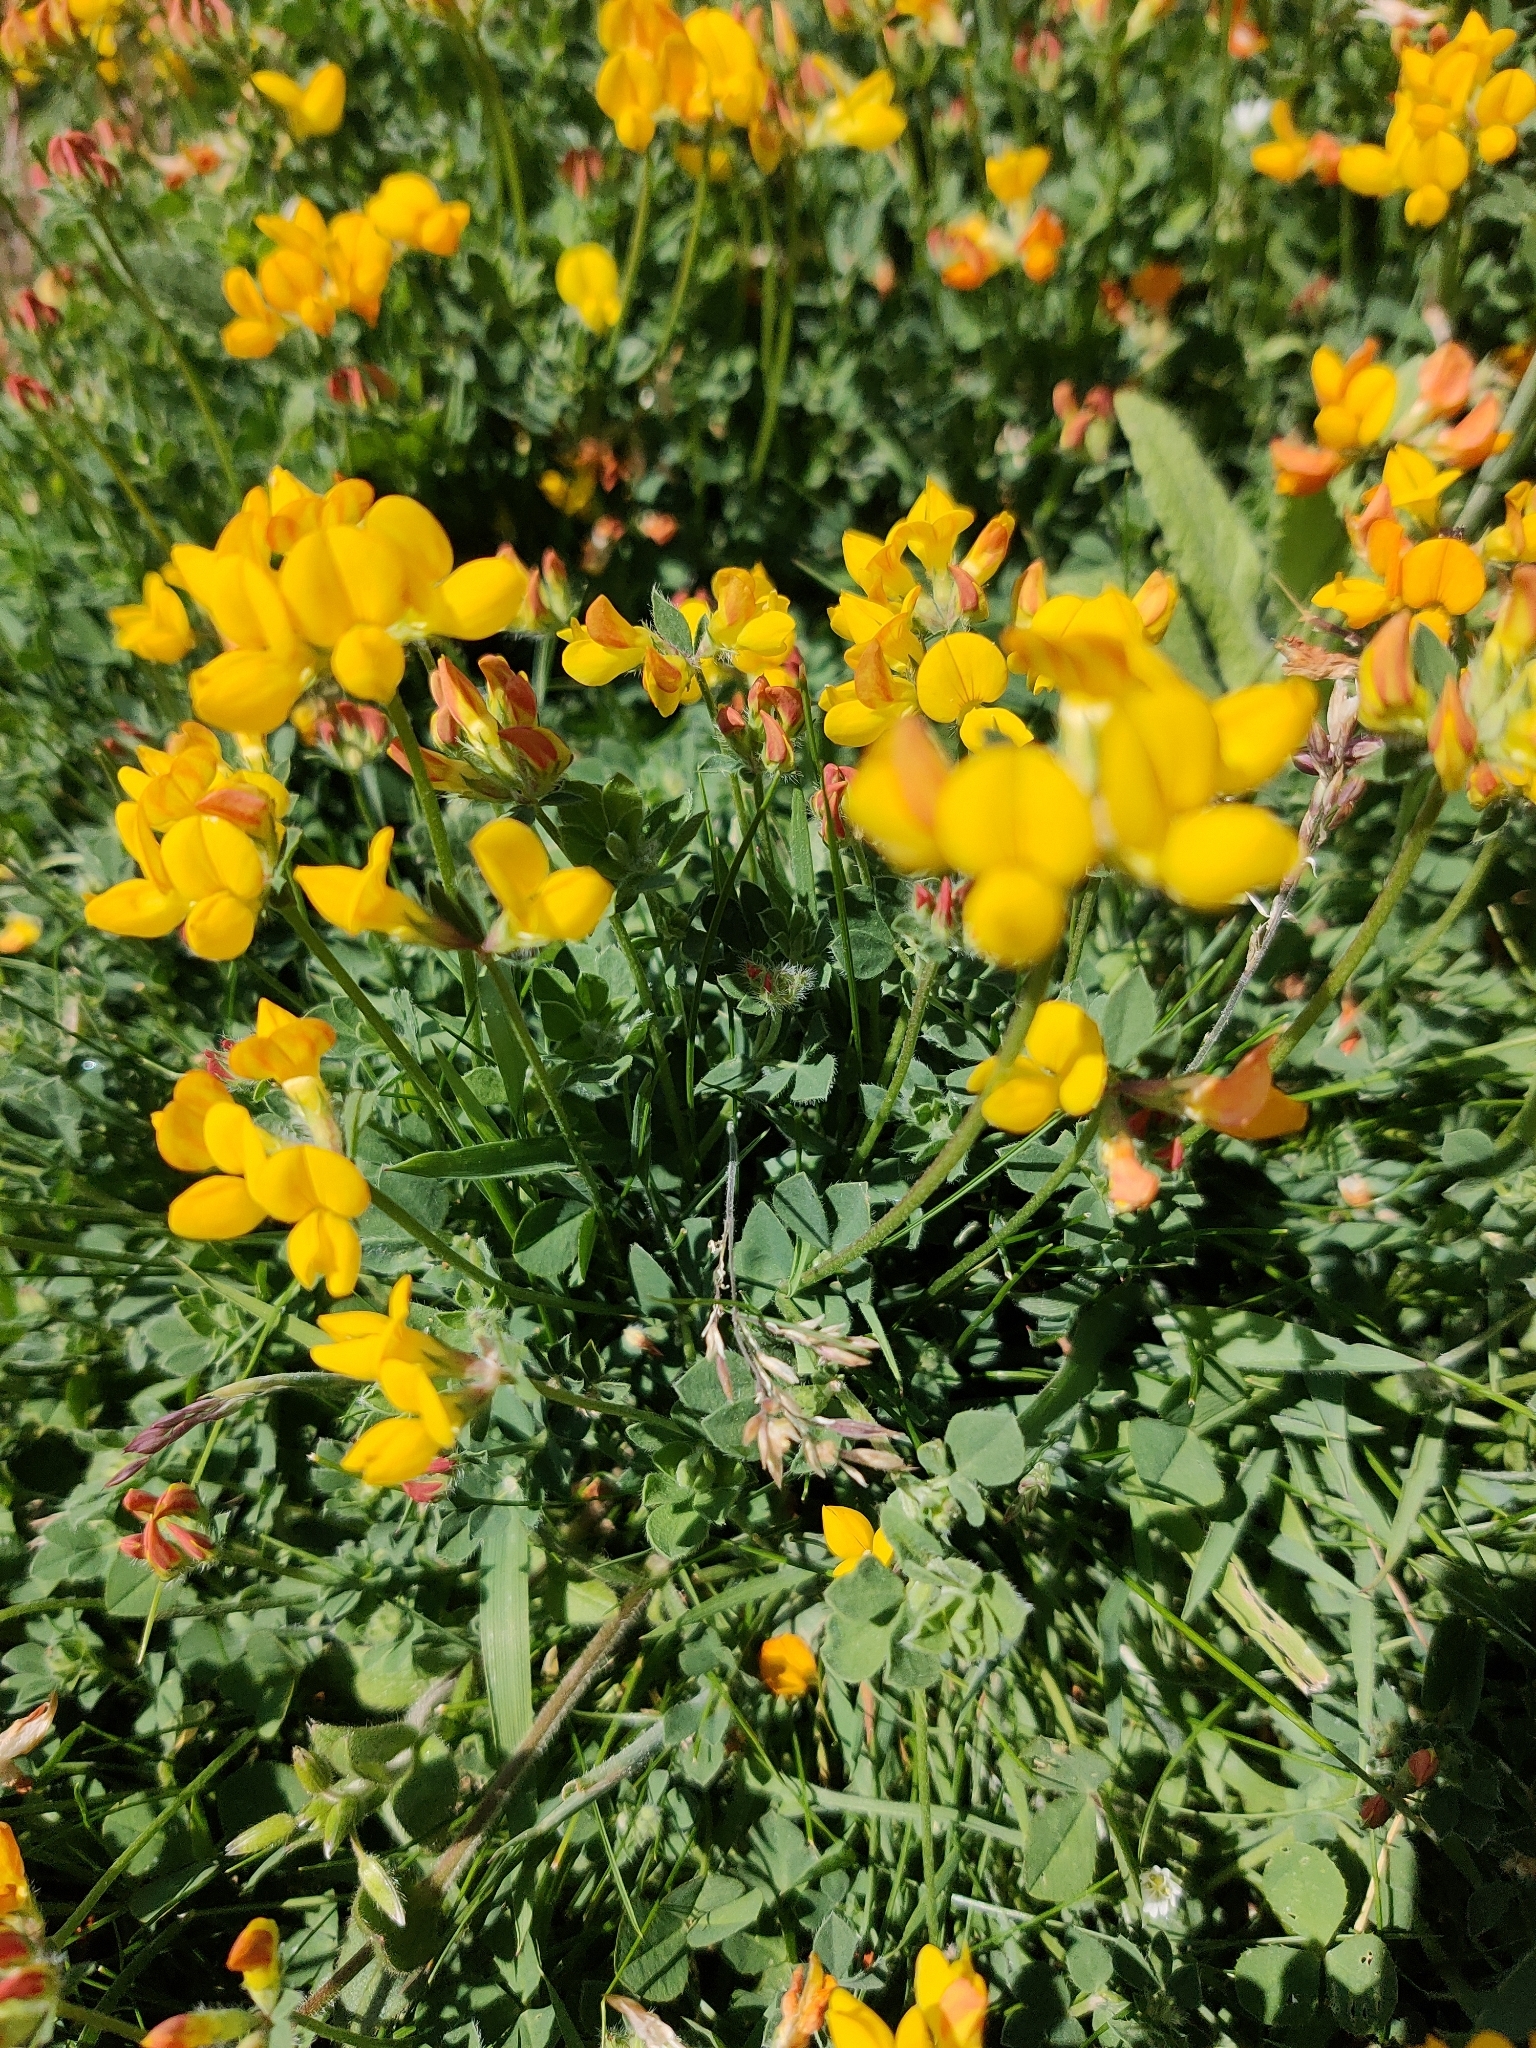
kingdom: Plantae
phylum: Tracheophyta
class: Magnoliopsida
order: Fabales
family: Fabaceae
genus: Lotus
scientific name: Lotus corniculatus
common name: Common bird's-foot-trefoil
